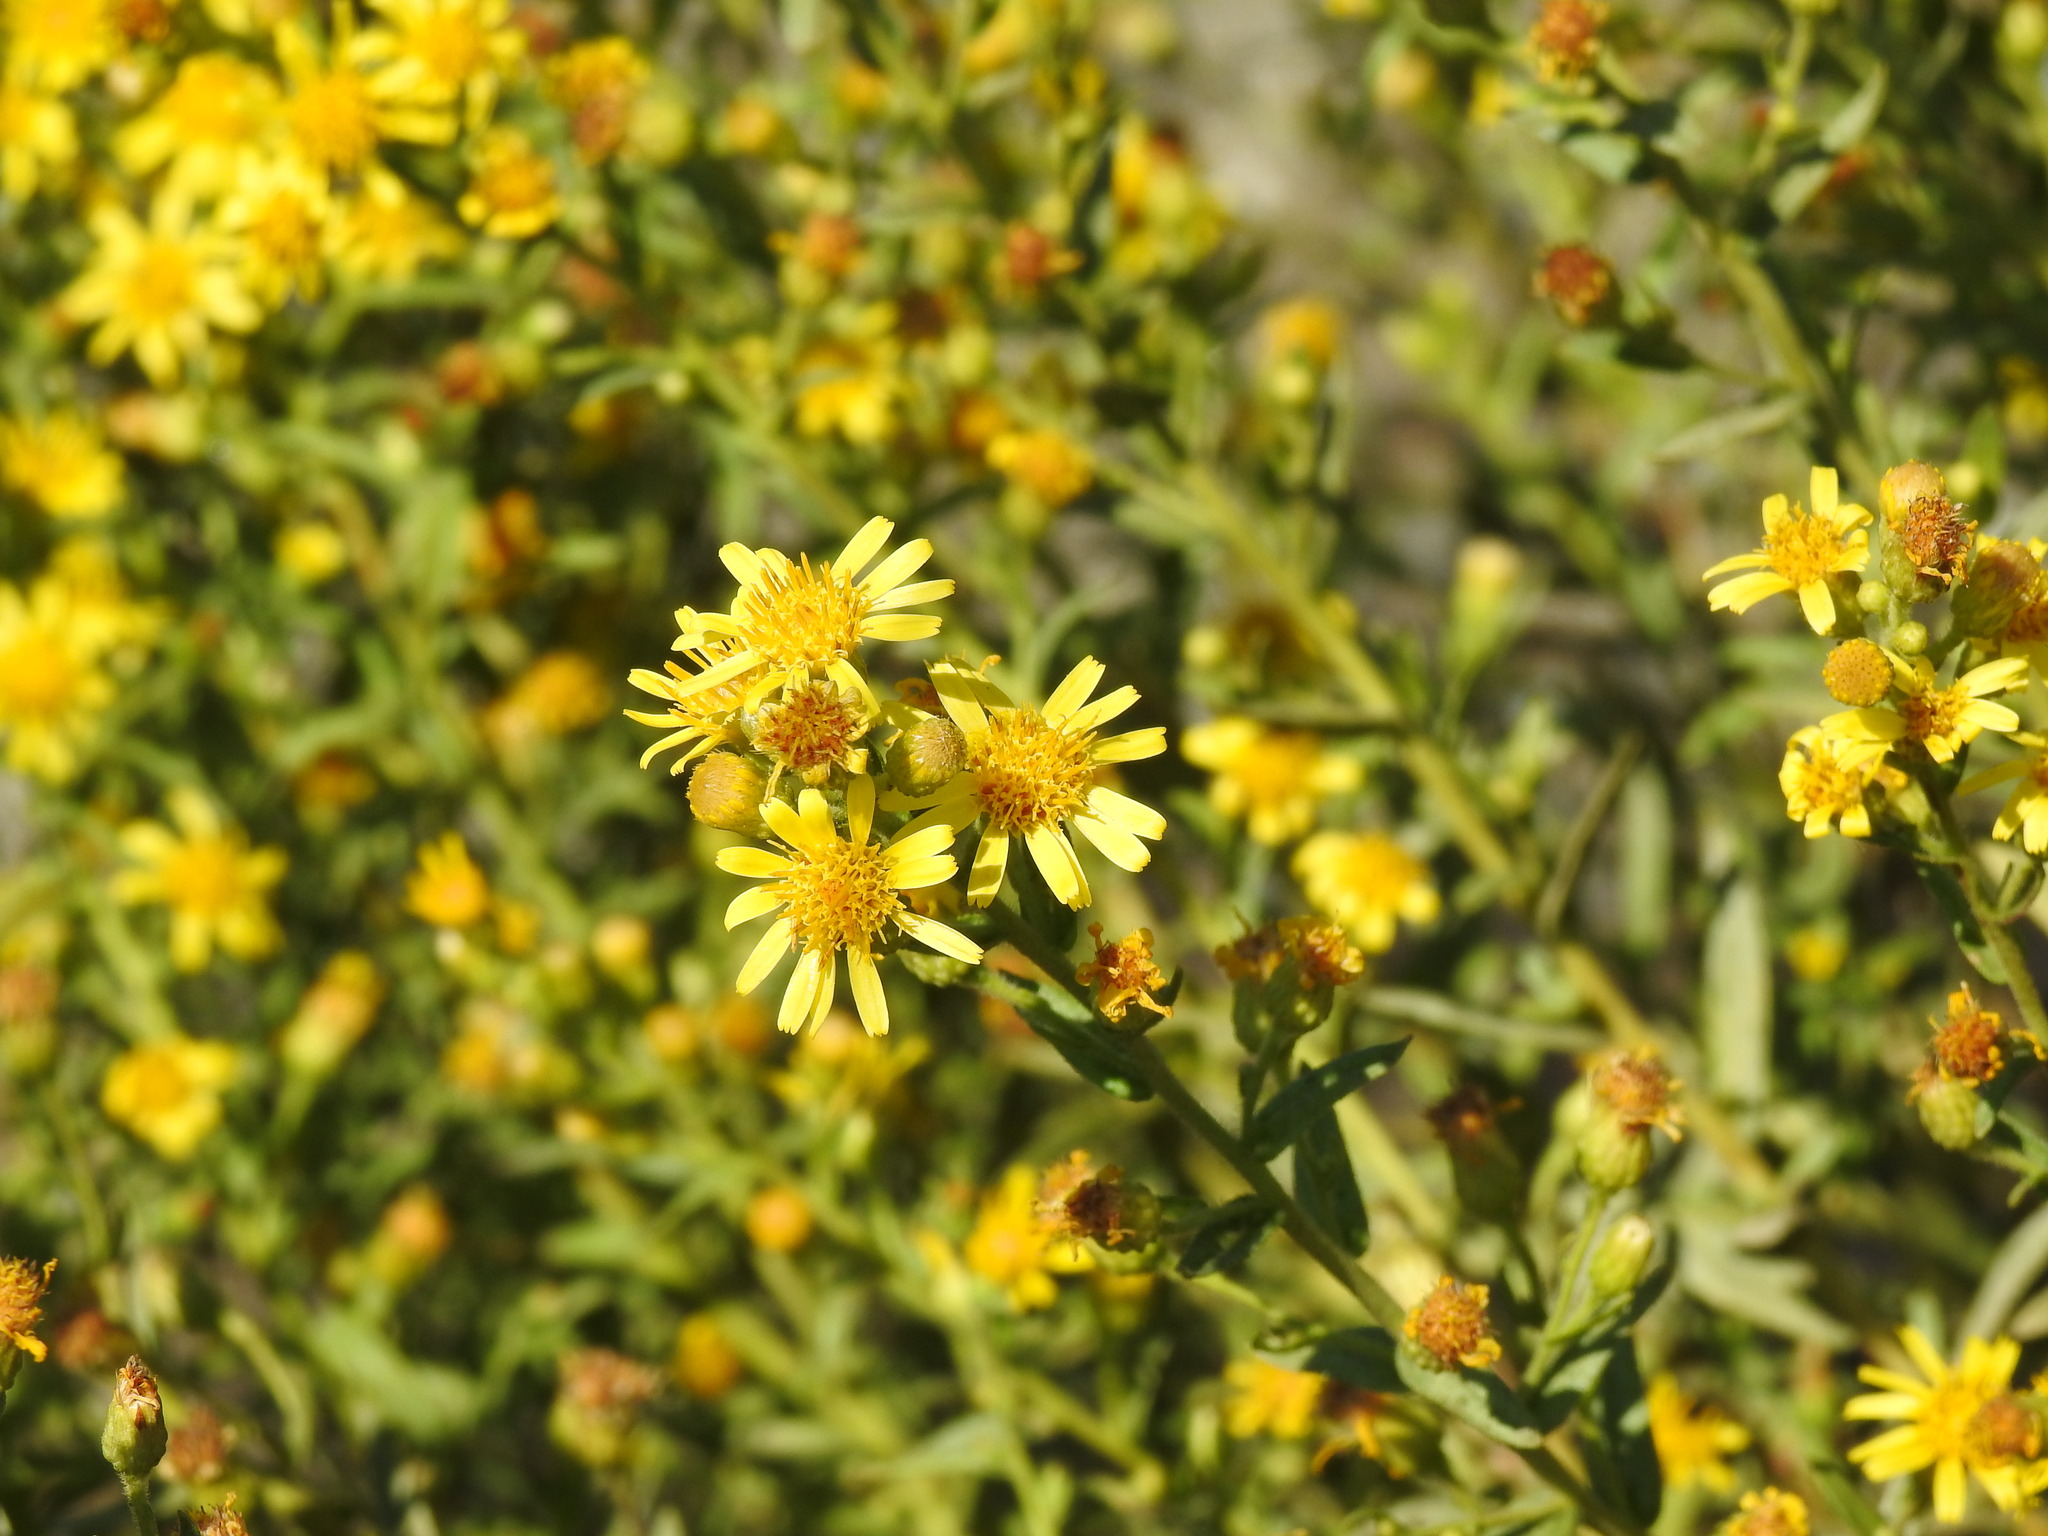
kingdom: Plantae
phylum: Tracheophyta
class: Magnoliopsida
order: Asterales
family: Asteraceae
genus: Dittrichia
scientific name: Dittrichia viscosa
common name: Woody fleabane
